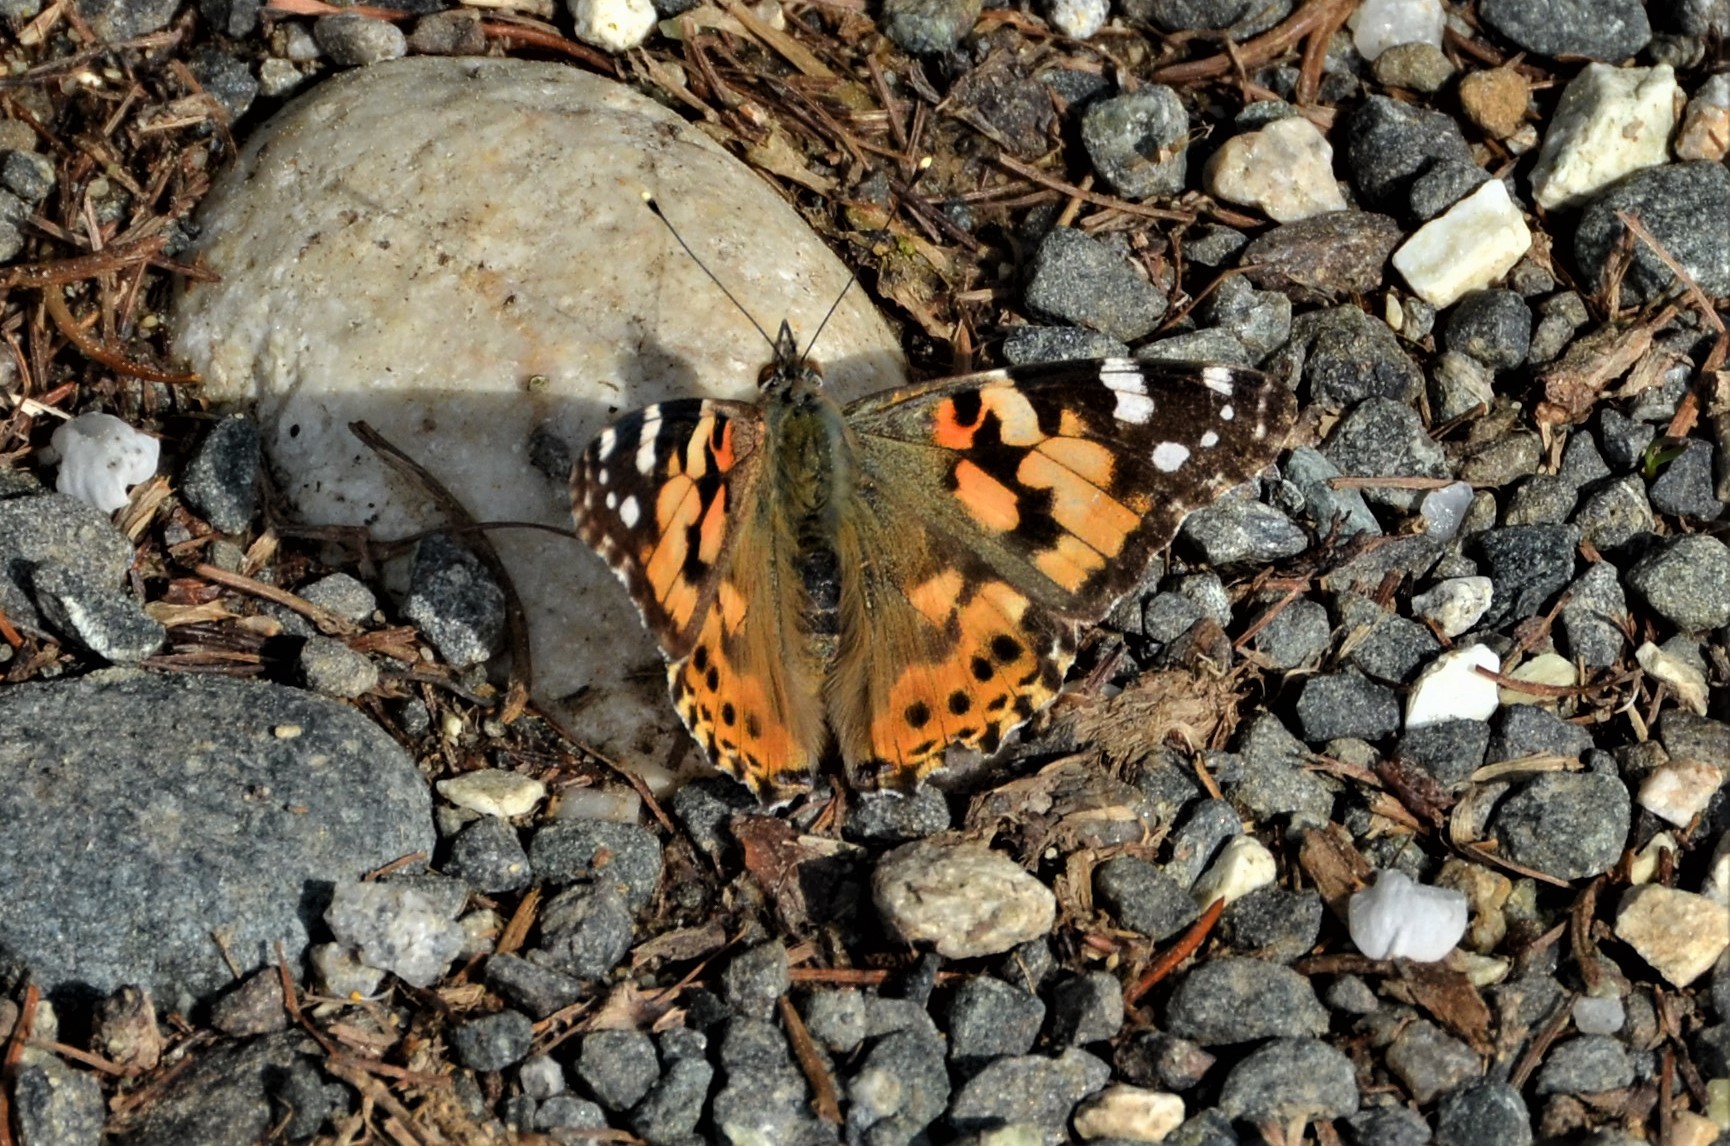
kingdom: Animalia
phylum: Arthropoda
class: Insecta
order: Lepidoptera
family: Nymphalidae
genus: Vanessa
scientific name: Vanessa cardui
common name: Painted lady
